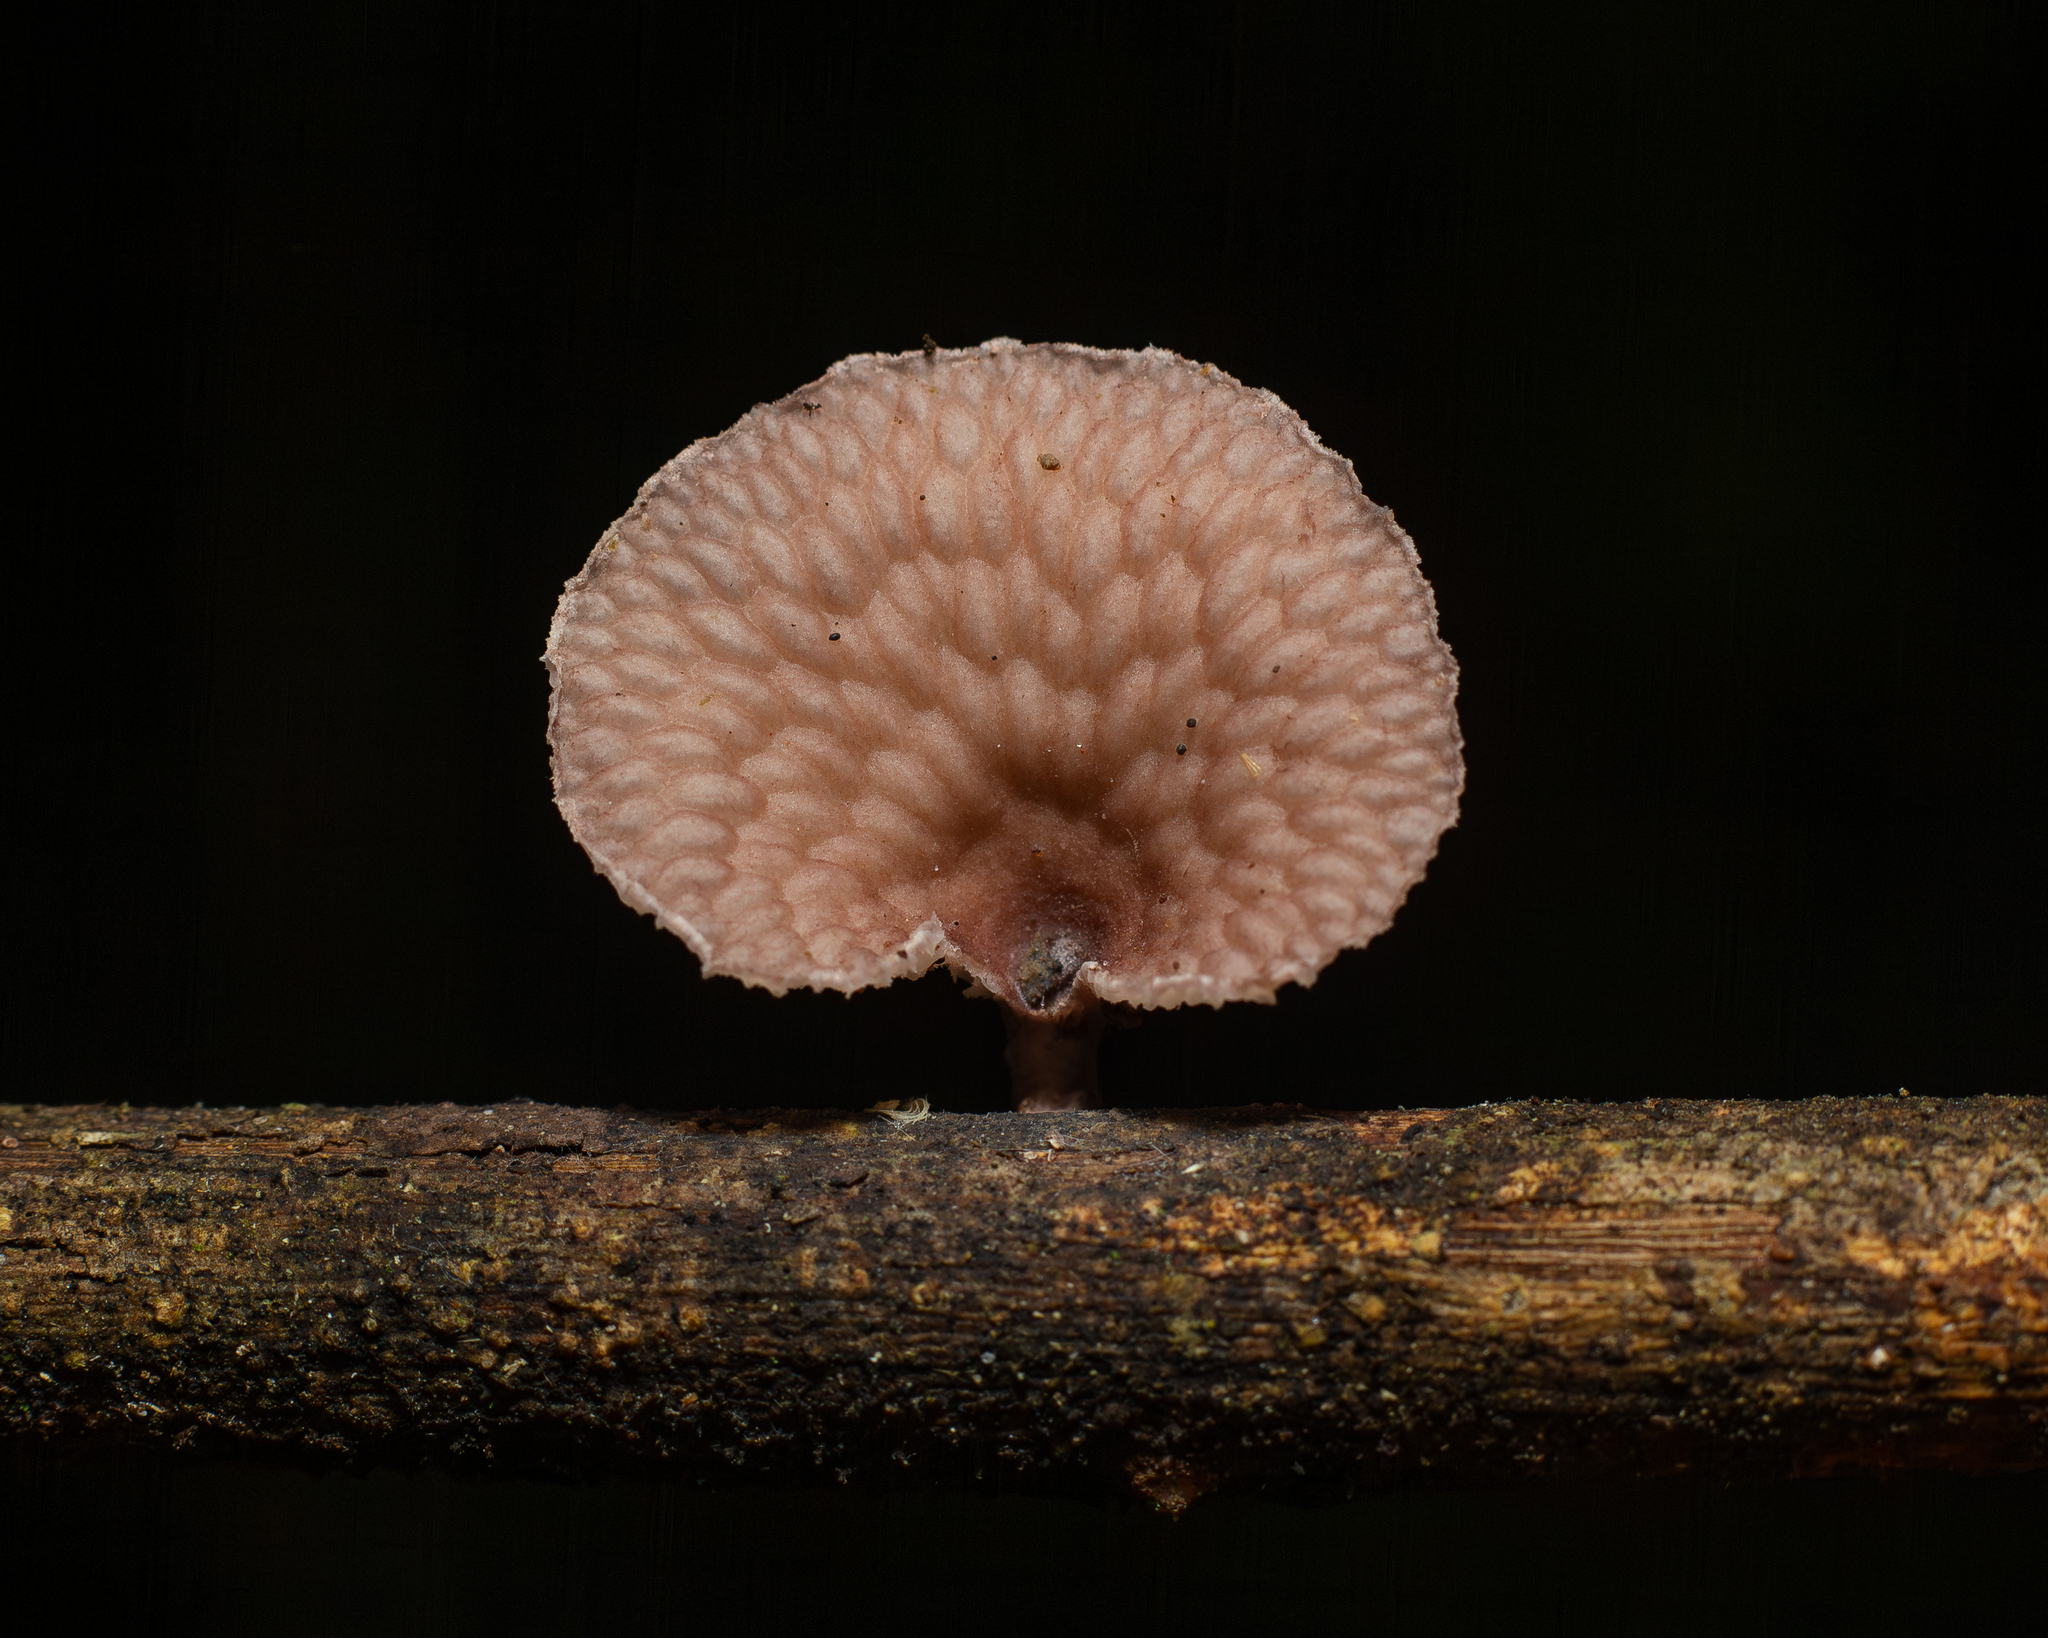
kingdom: Fungi
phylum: Basidiomycota
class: Agaricomycetes
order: Polyporales
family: Polyporaceae
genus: Neofavolus
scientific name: Neofavolus subpurpurascens
